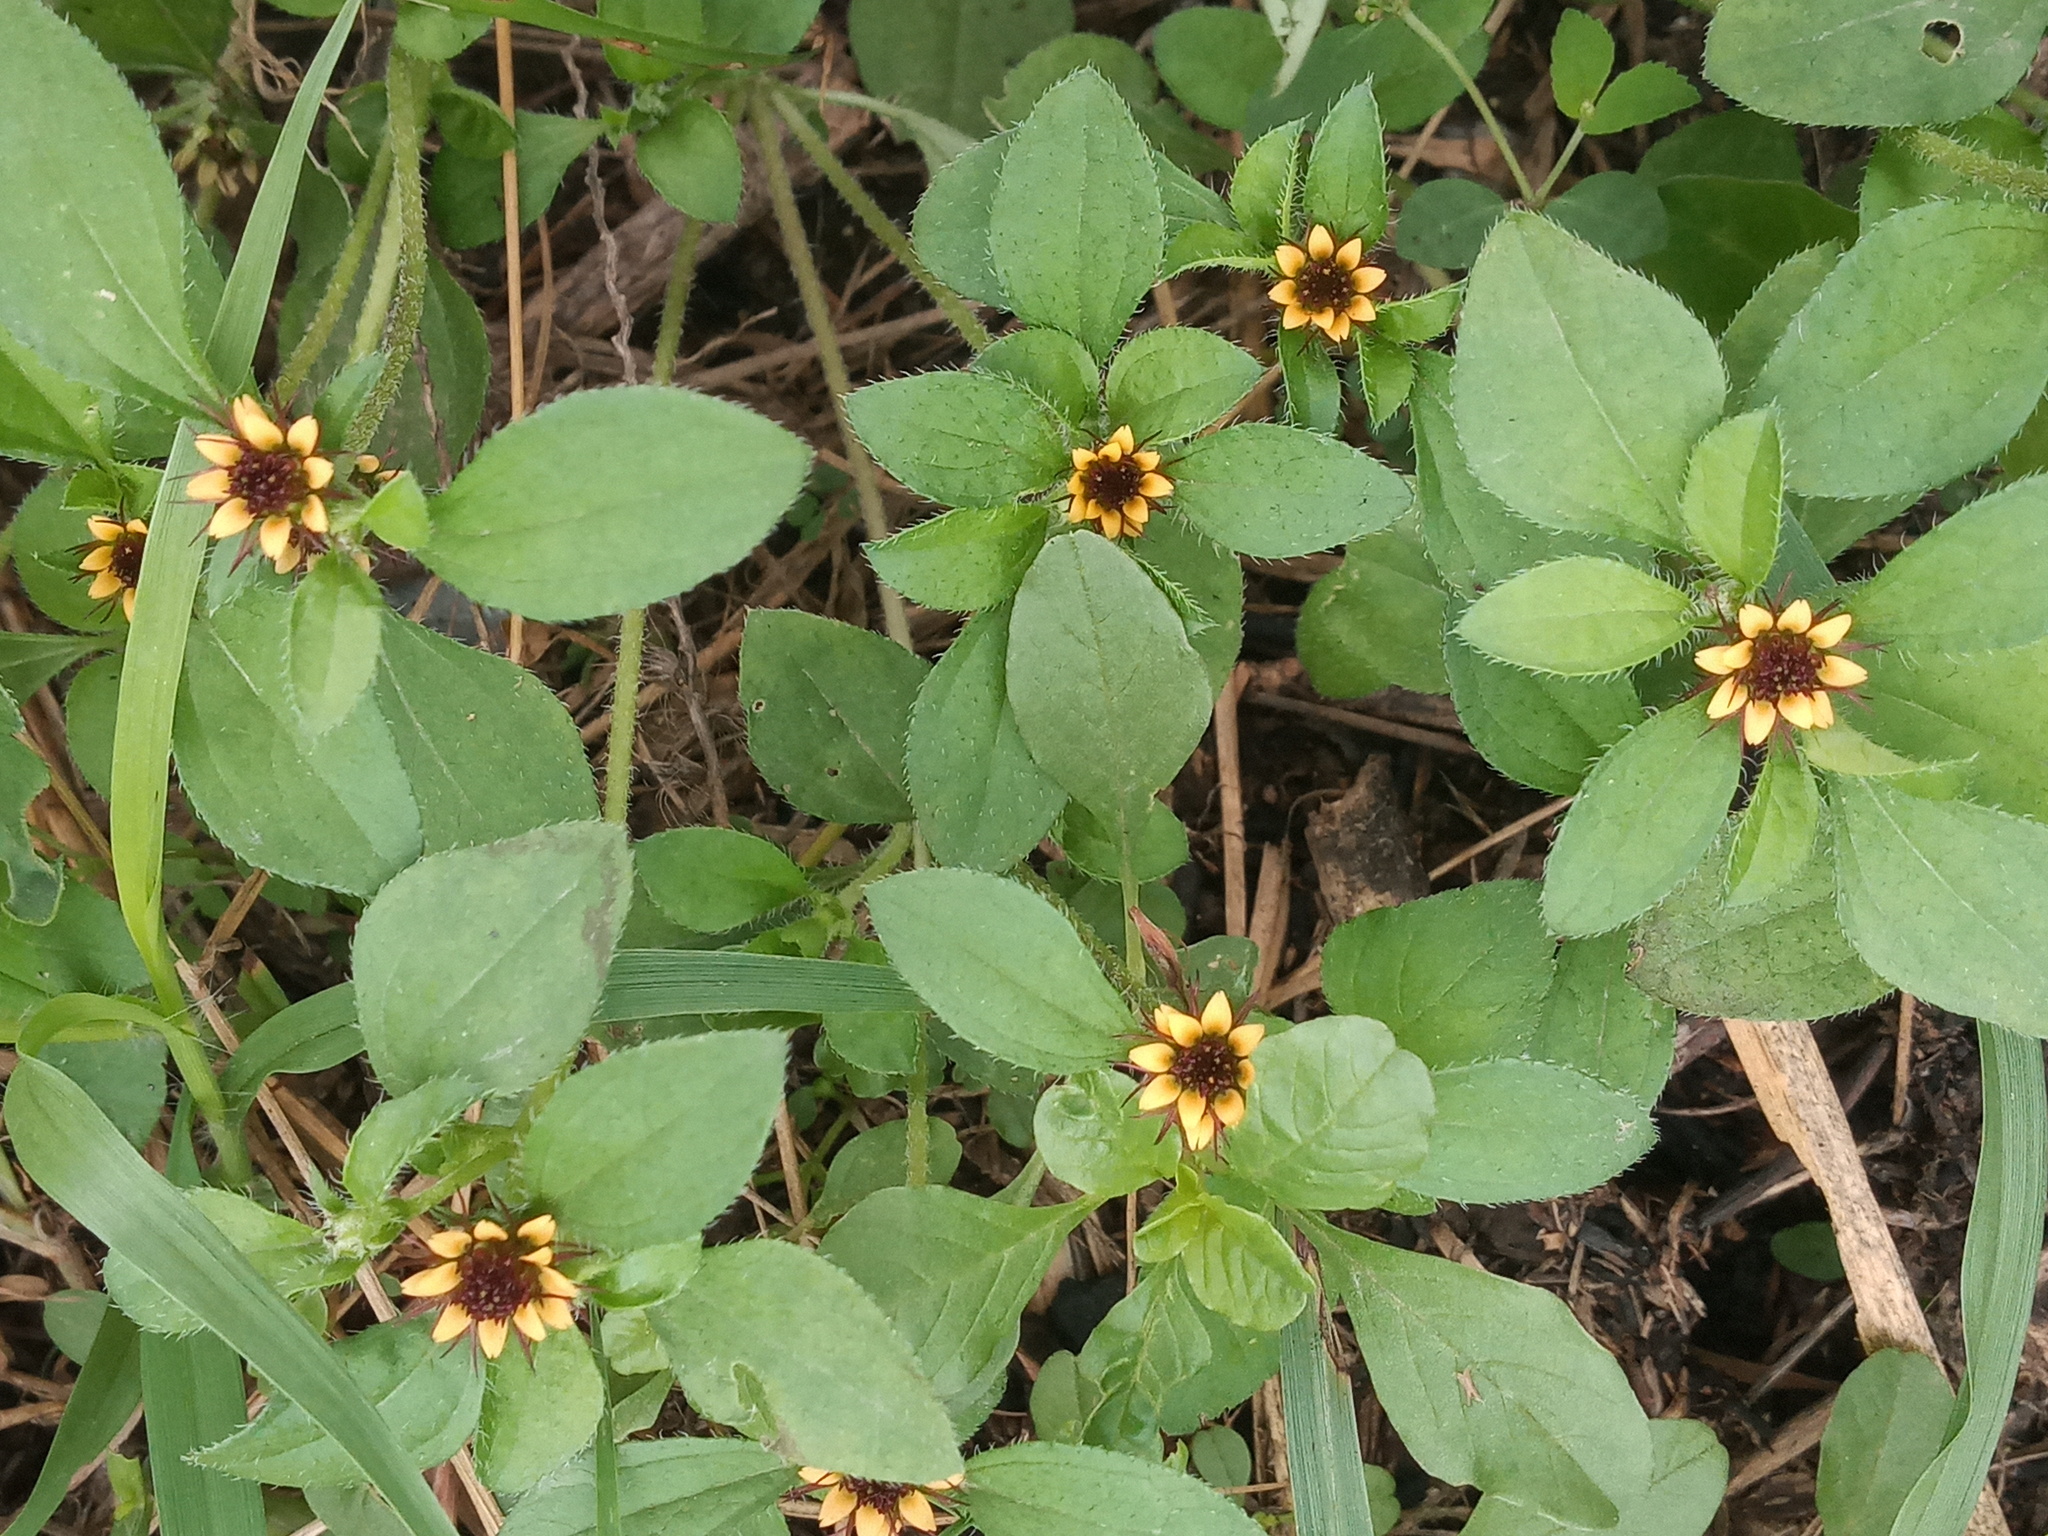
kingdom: Plantae
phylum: Tracheophyta
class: Magnoliopsida
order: Asterales
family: Asteraceae
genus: Sanvitalia
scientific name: Sanvitalia ocymoides
